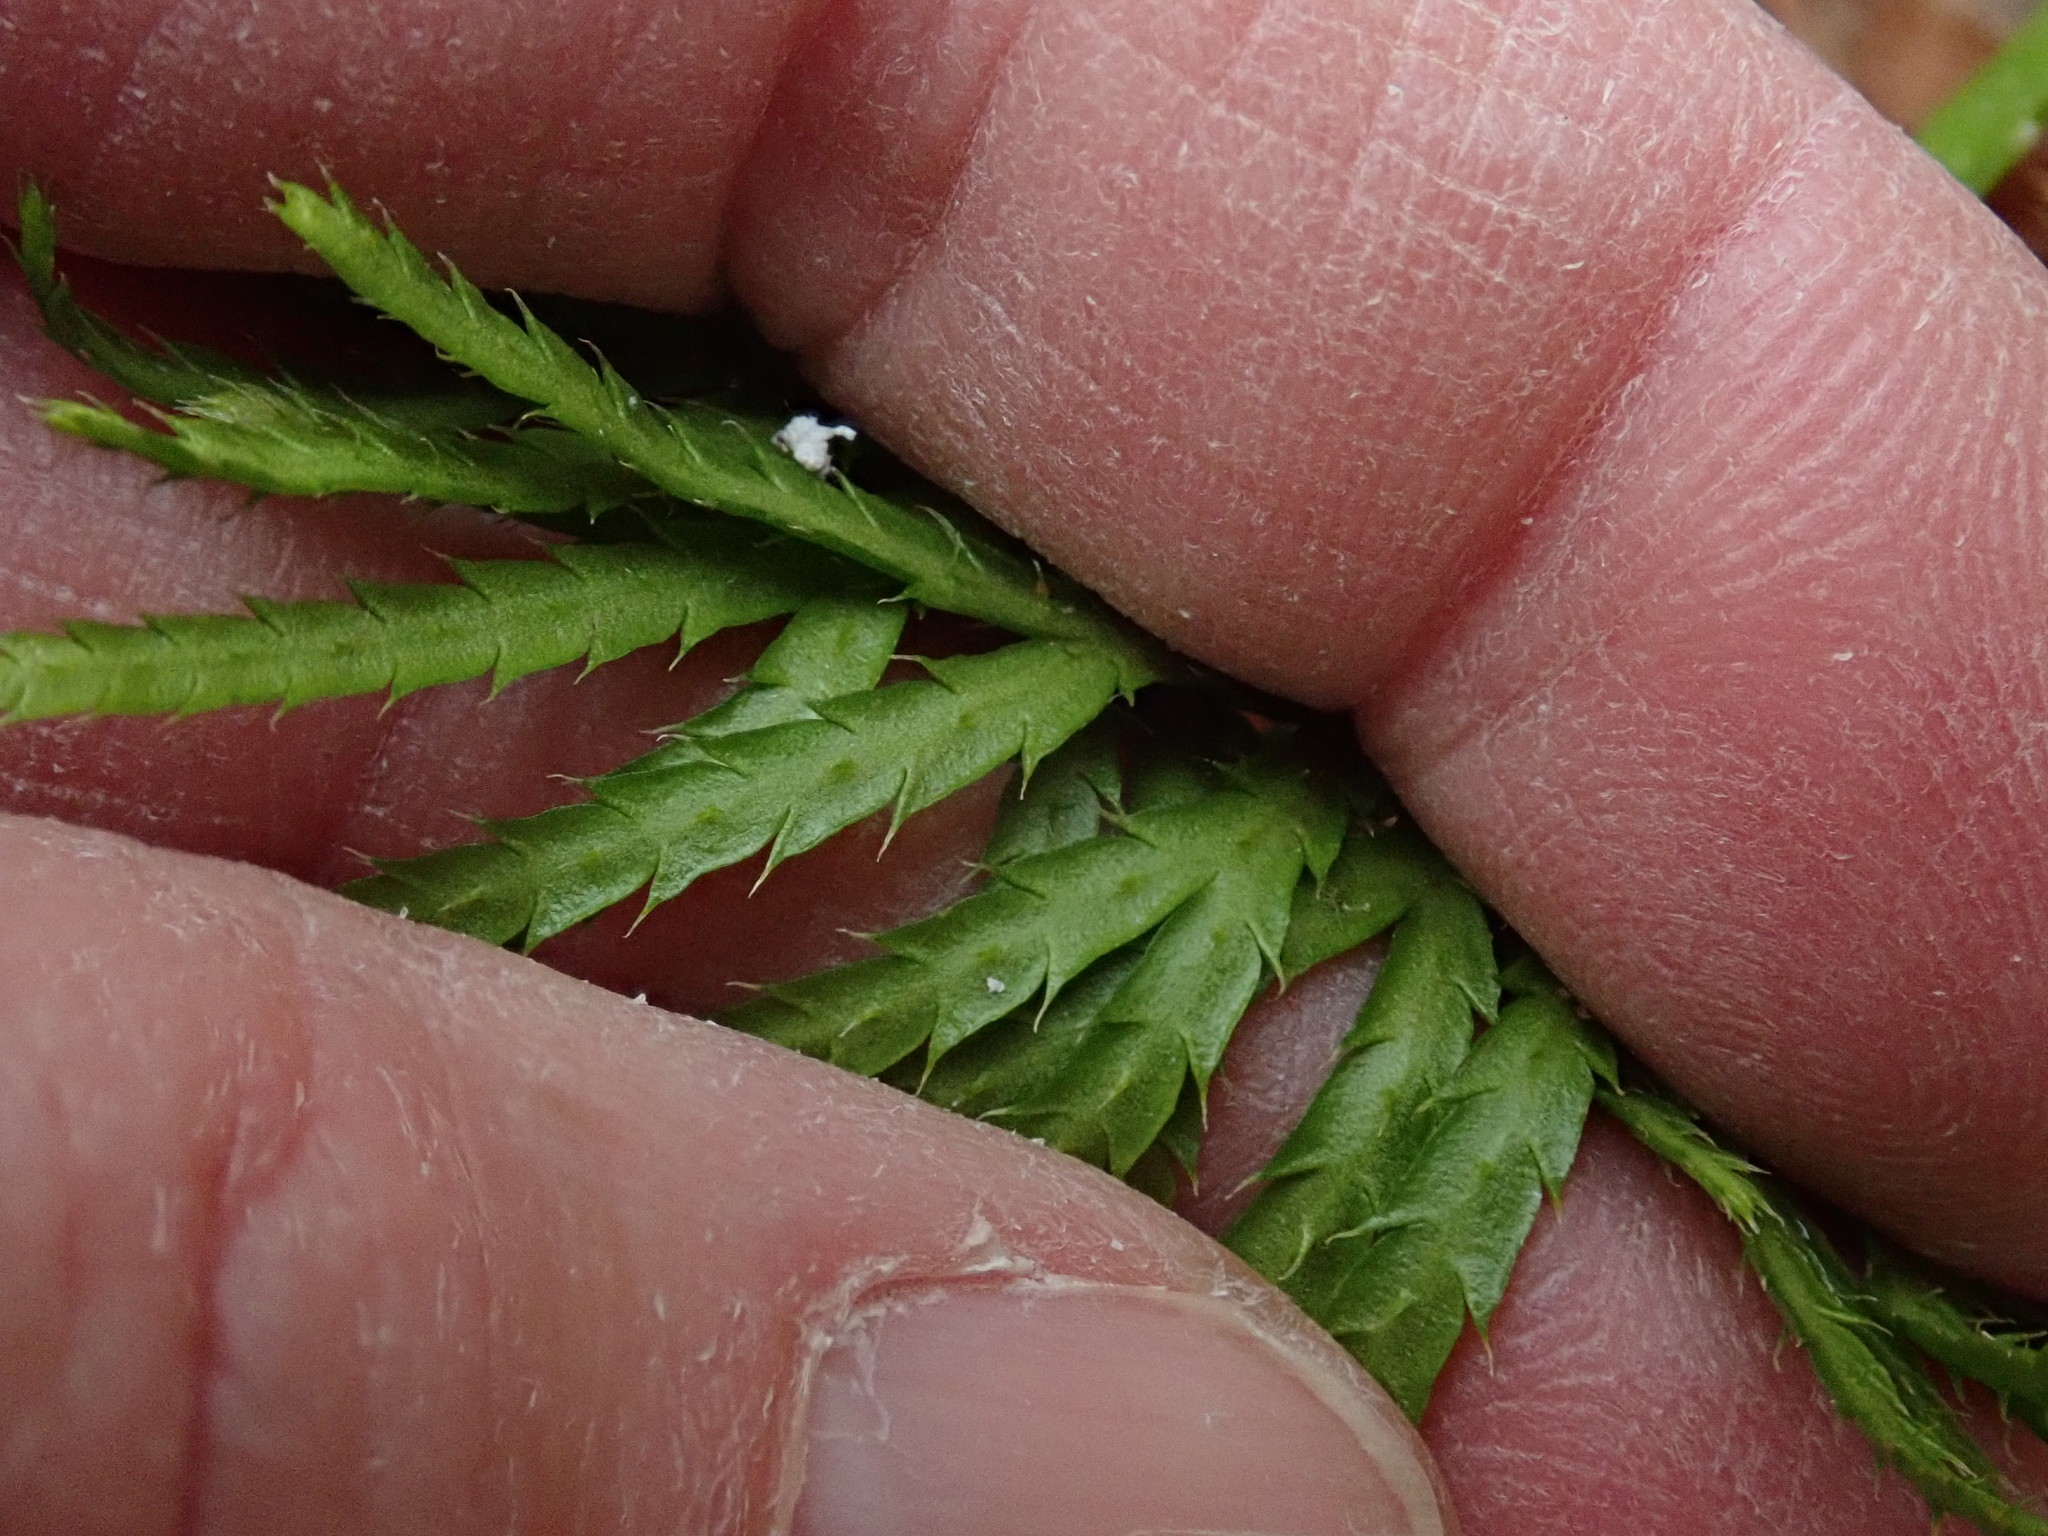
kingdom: Plantae
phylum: Tracheophyta
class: Lycopodiopsida
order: Lycopodiales
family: Lycopodiaceae
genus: Diphasiastrum
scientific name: Diphasiastrum digitatum
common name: Southern running-pine
